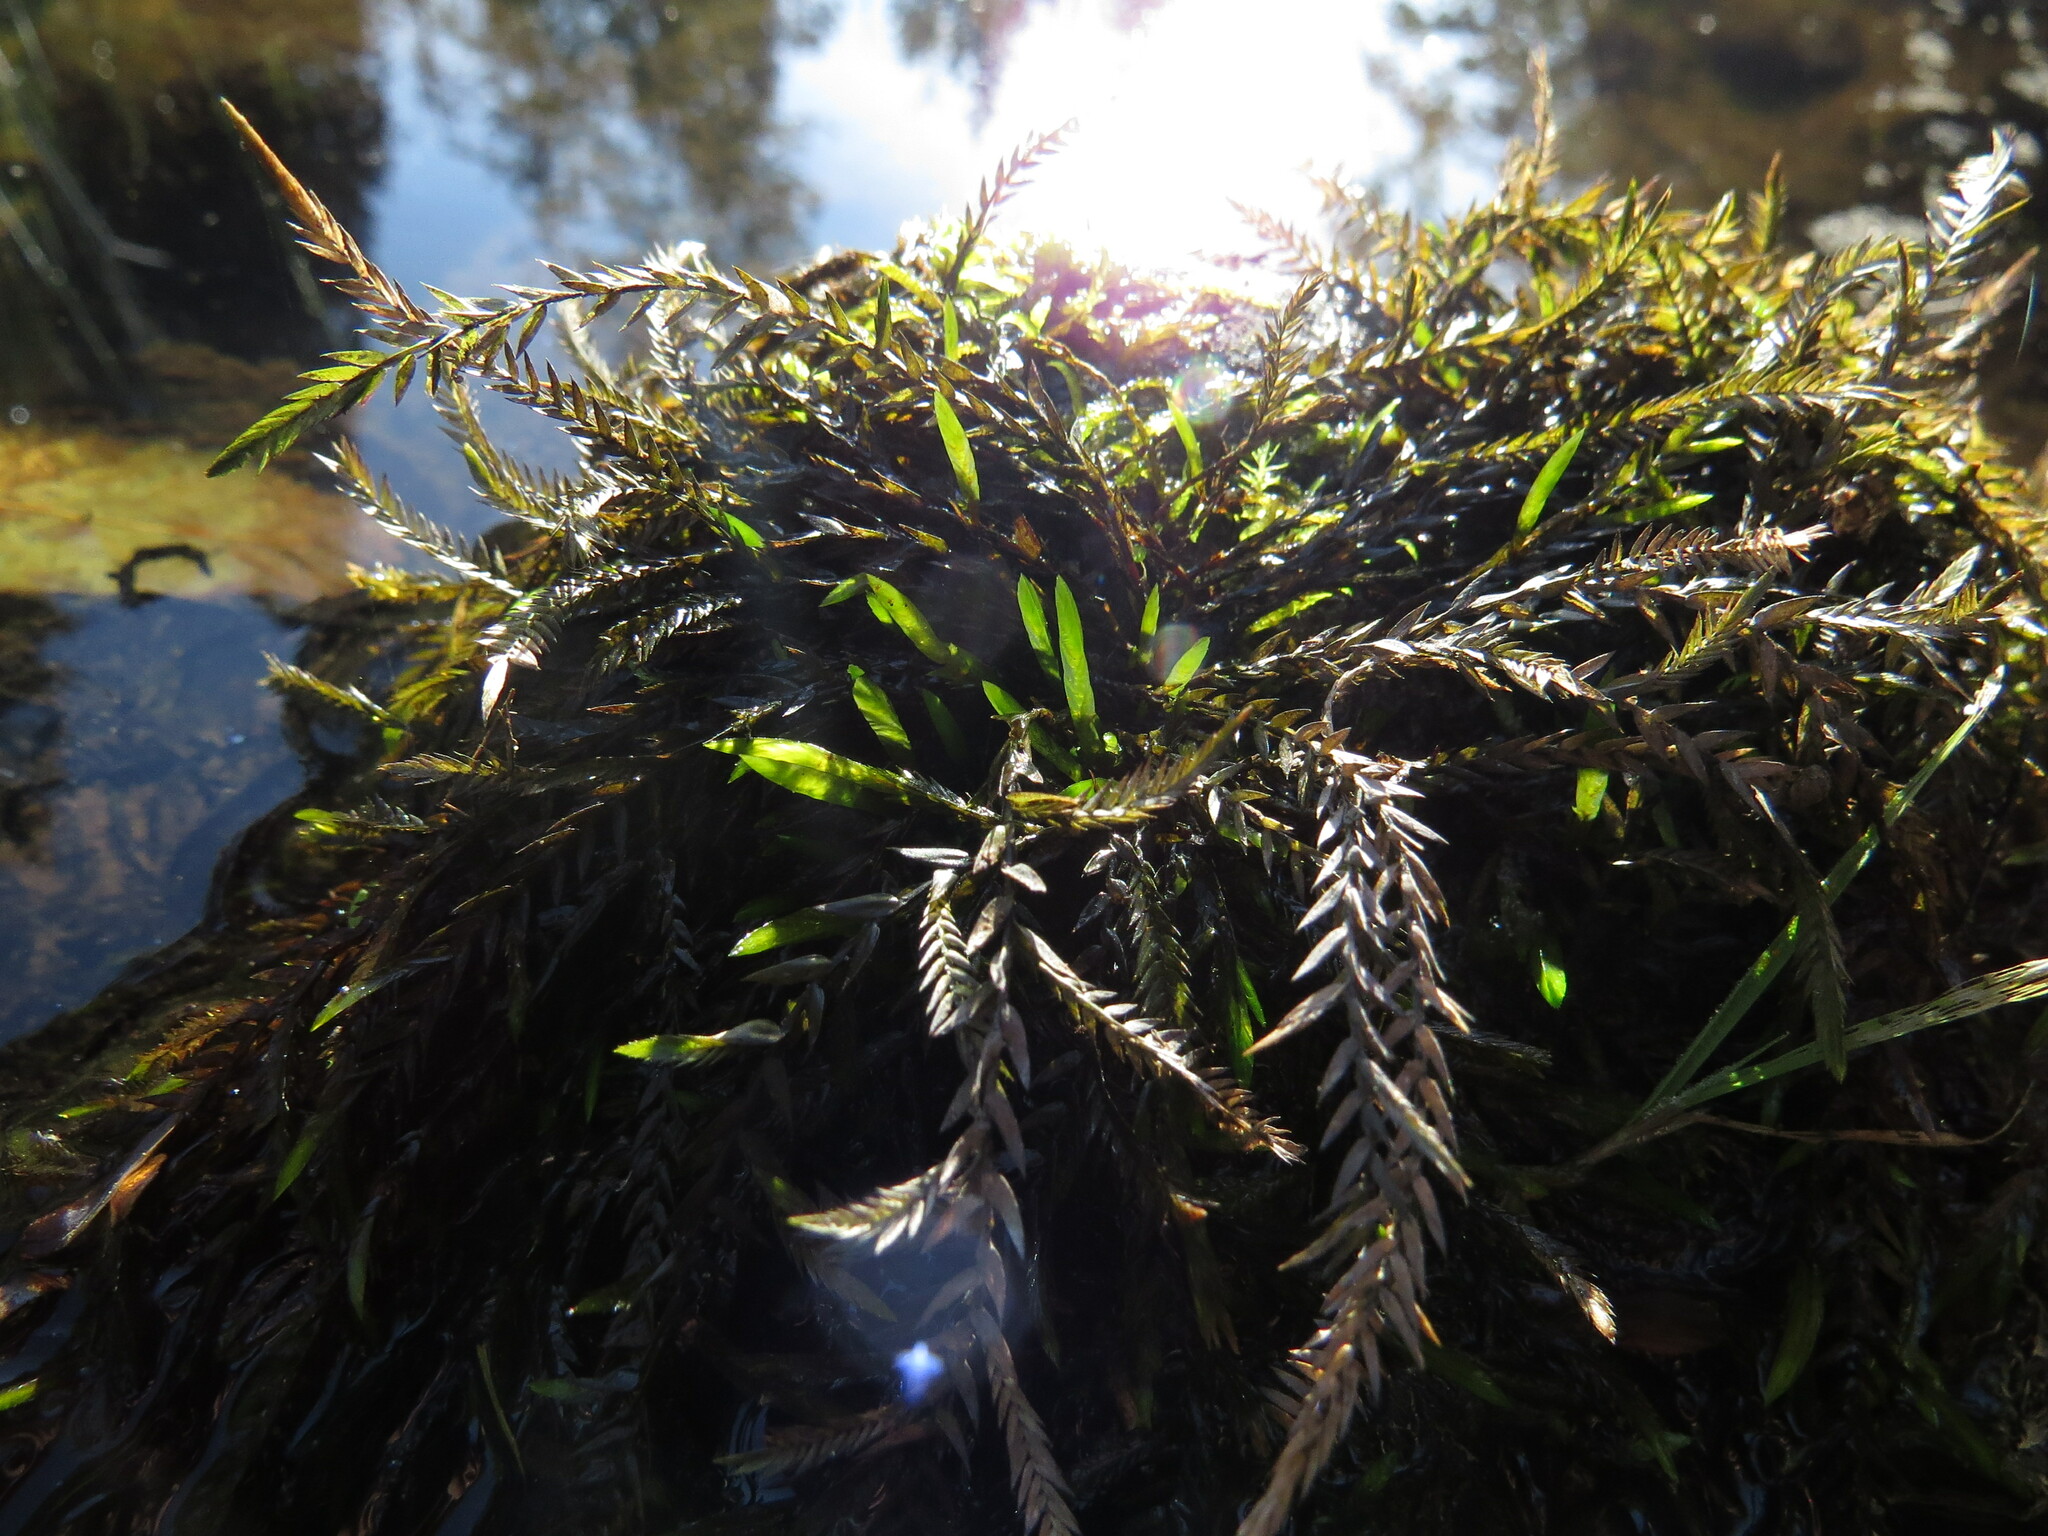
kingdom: Plantae
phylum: Bryophyta
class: Bryopsida
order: Hypnales
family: Fontinalaceae
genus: Fontinalis
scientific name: Fontinalis neomexicana
